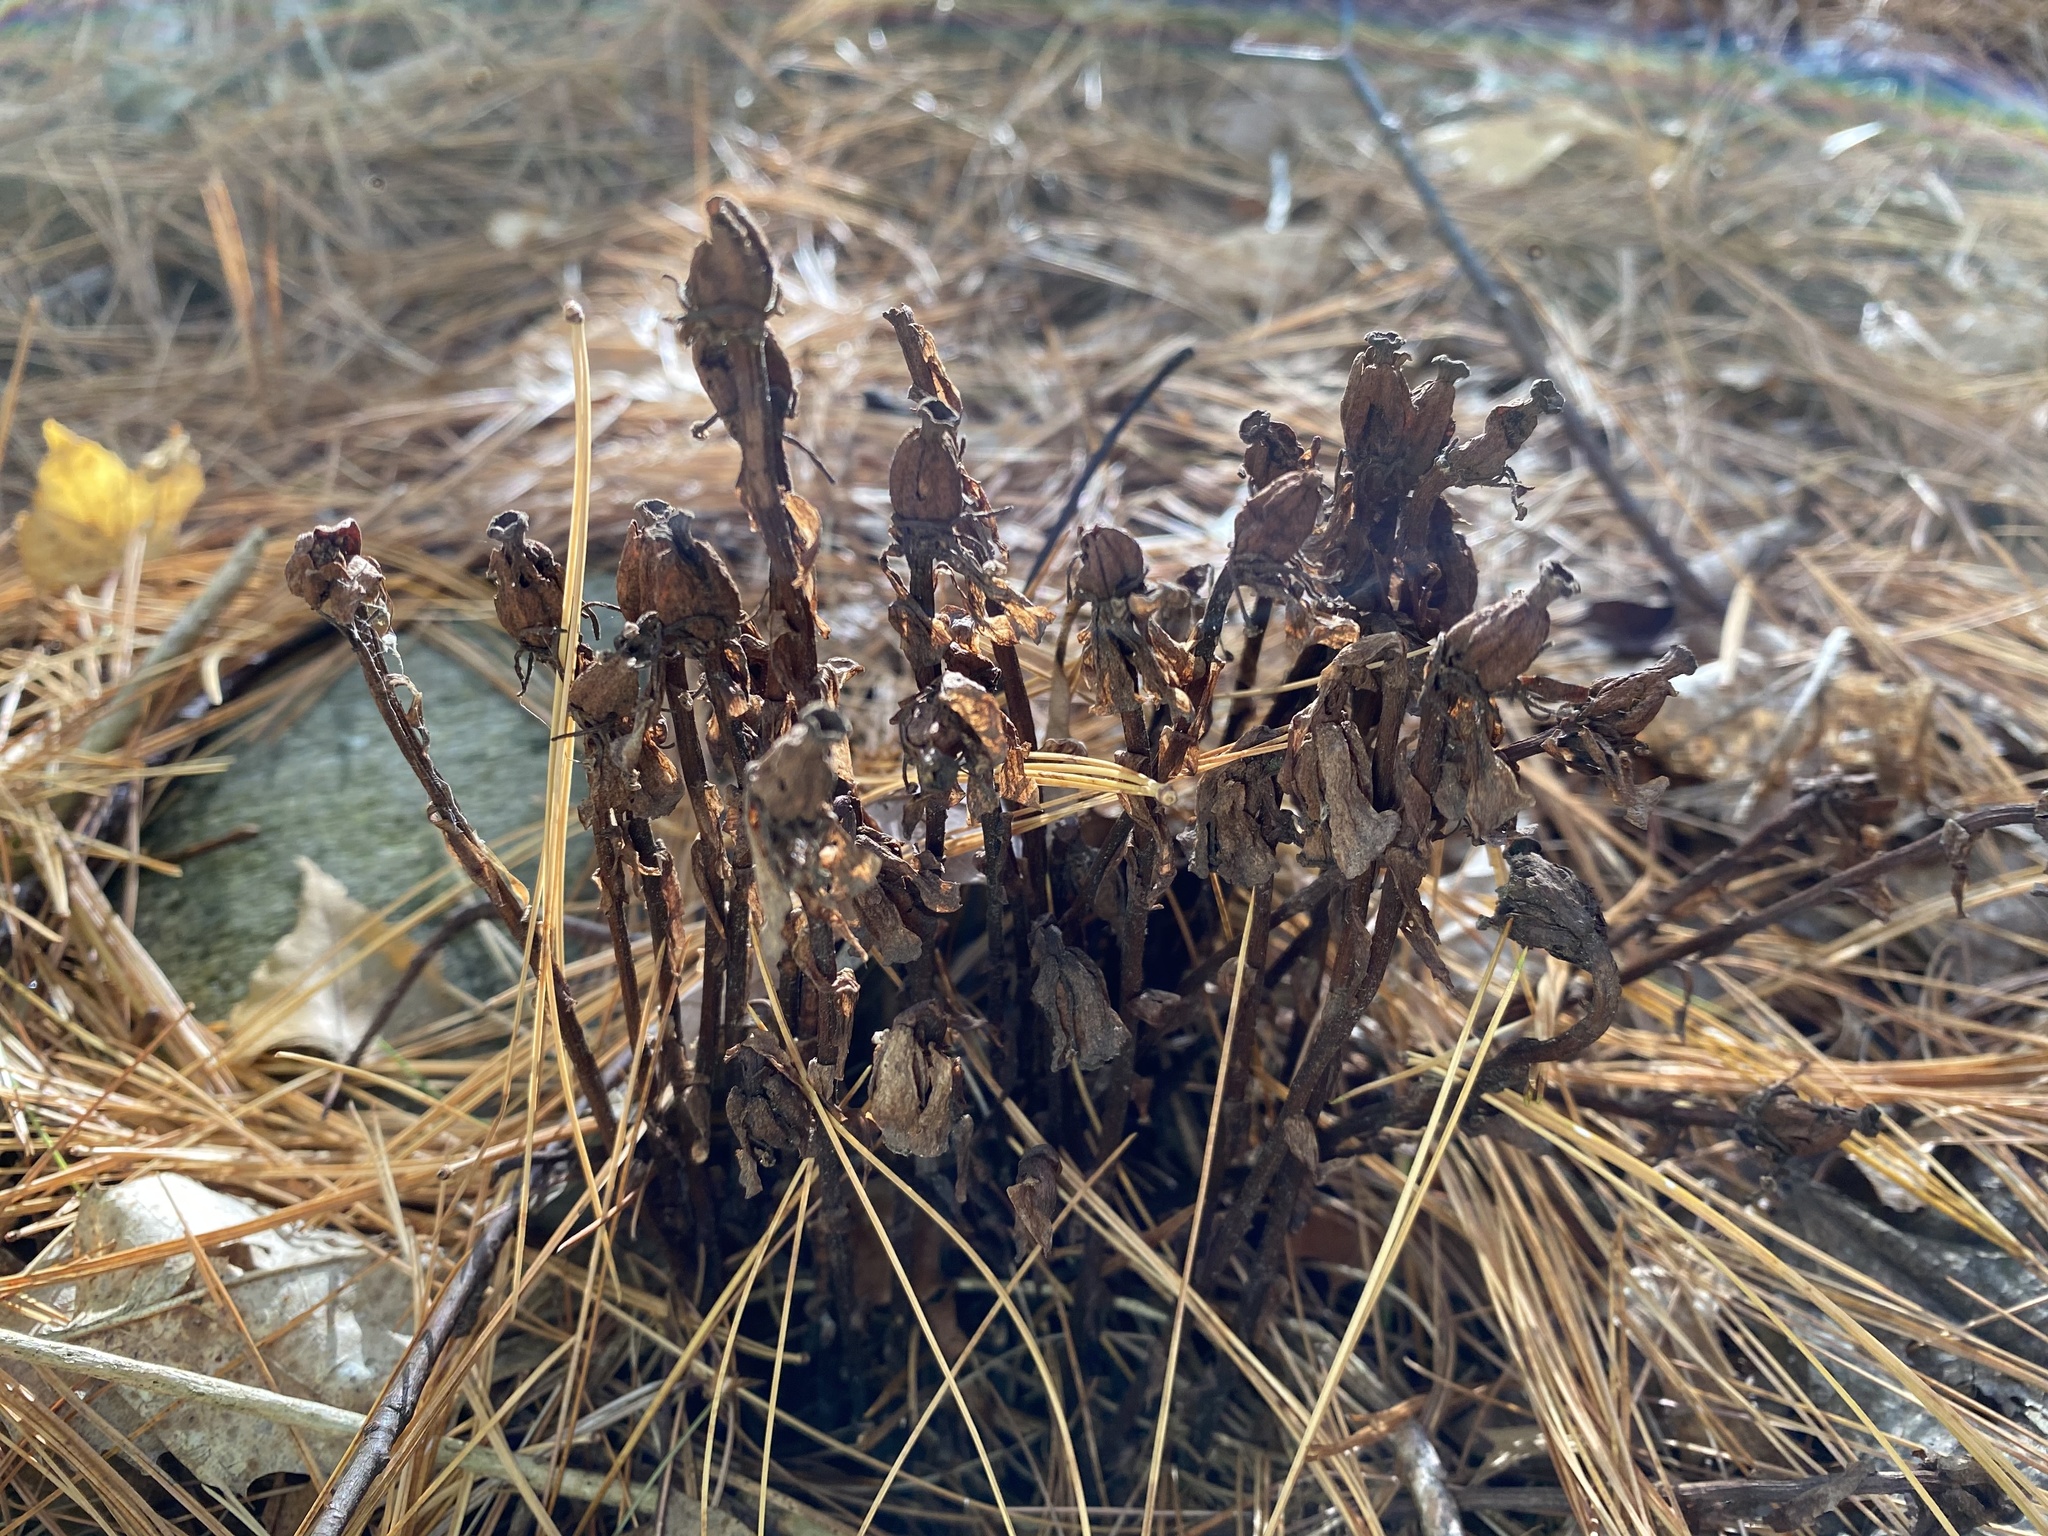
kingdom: Plantae
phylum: Tracheophyta
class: Magnoliopsida
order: Ericales
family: Ericaceae
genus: Monotropa
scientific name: Monotropa uniflora
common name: Convulsion root
